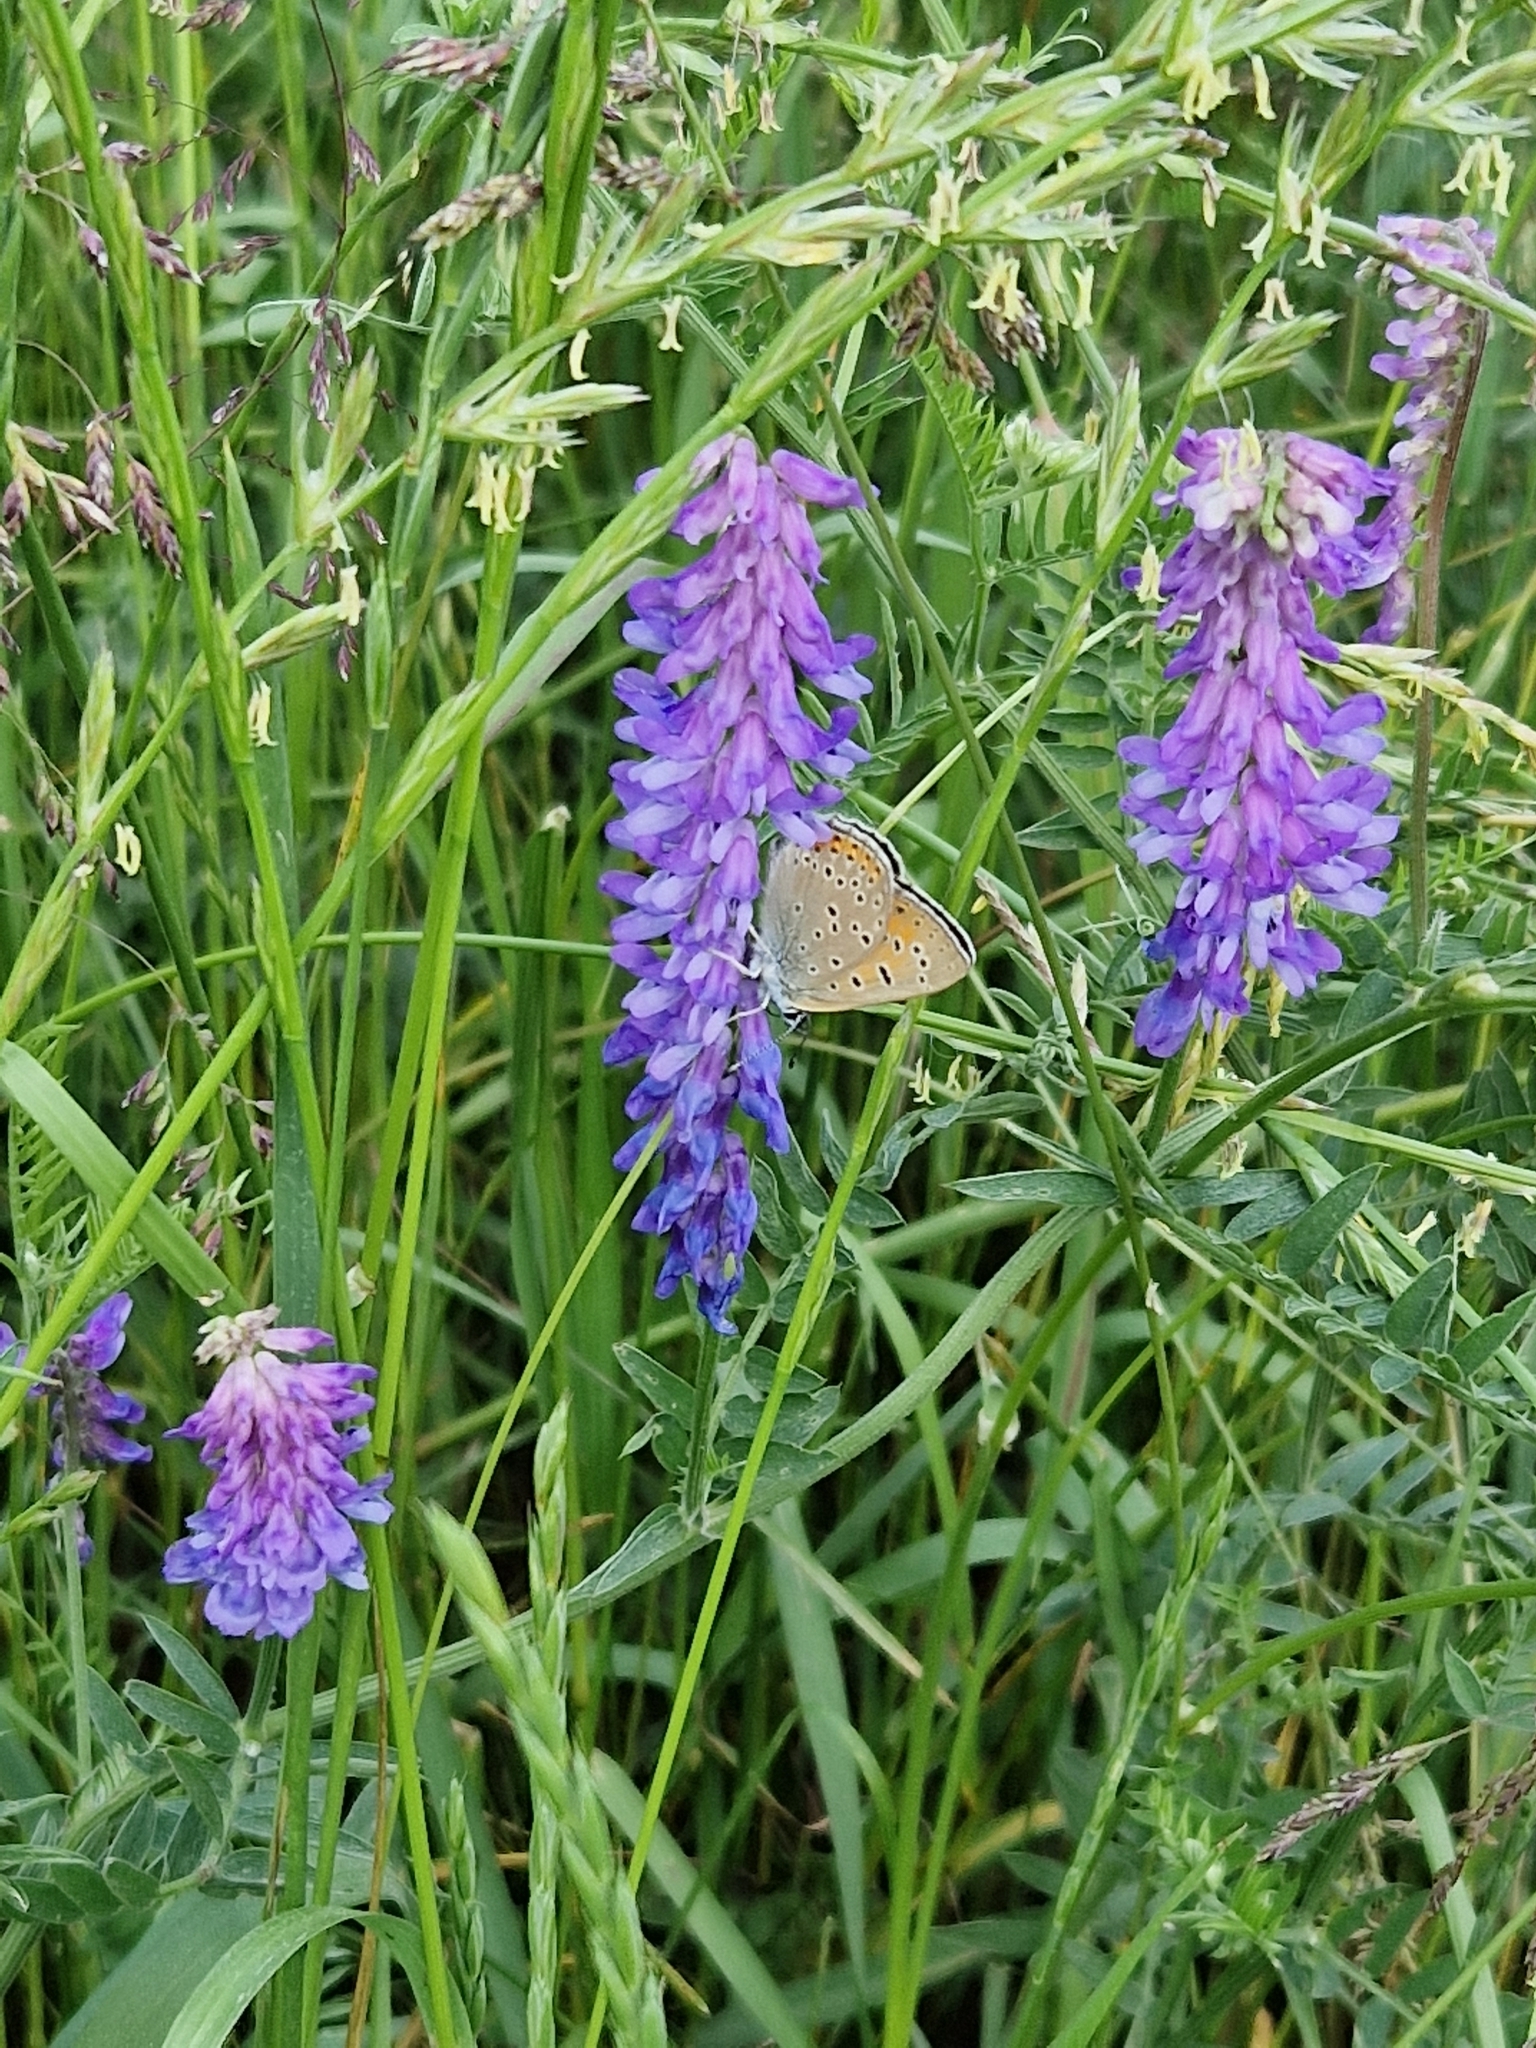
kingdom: Animalia
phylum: Arthropoda
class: Insecta
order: Lepidoptera
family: Lycaenidae
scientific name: Lycaenidae
